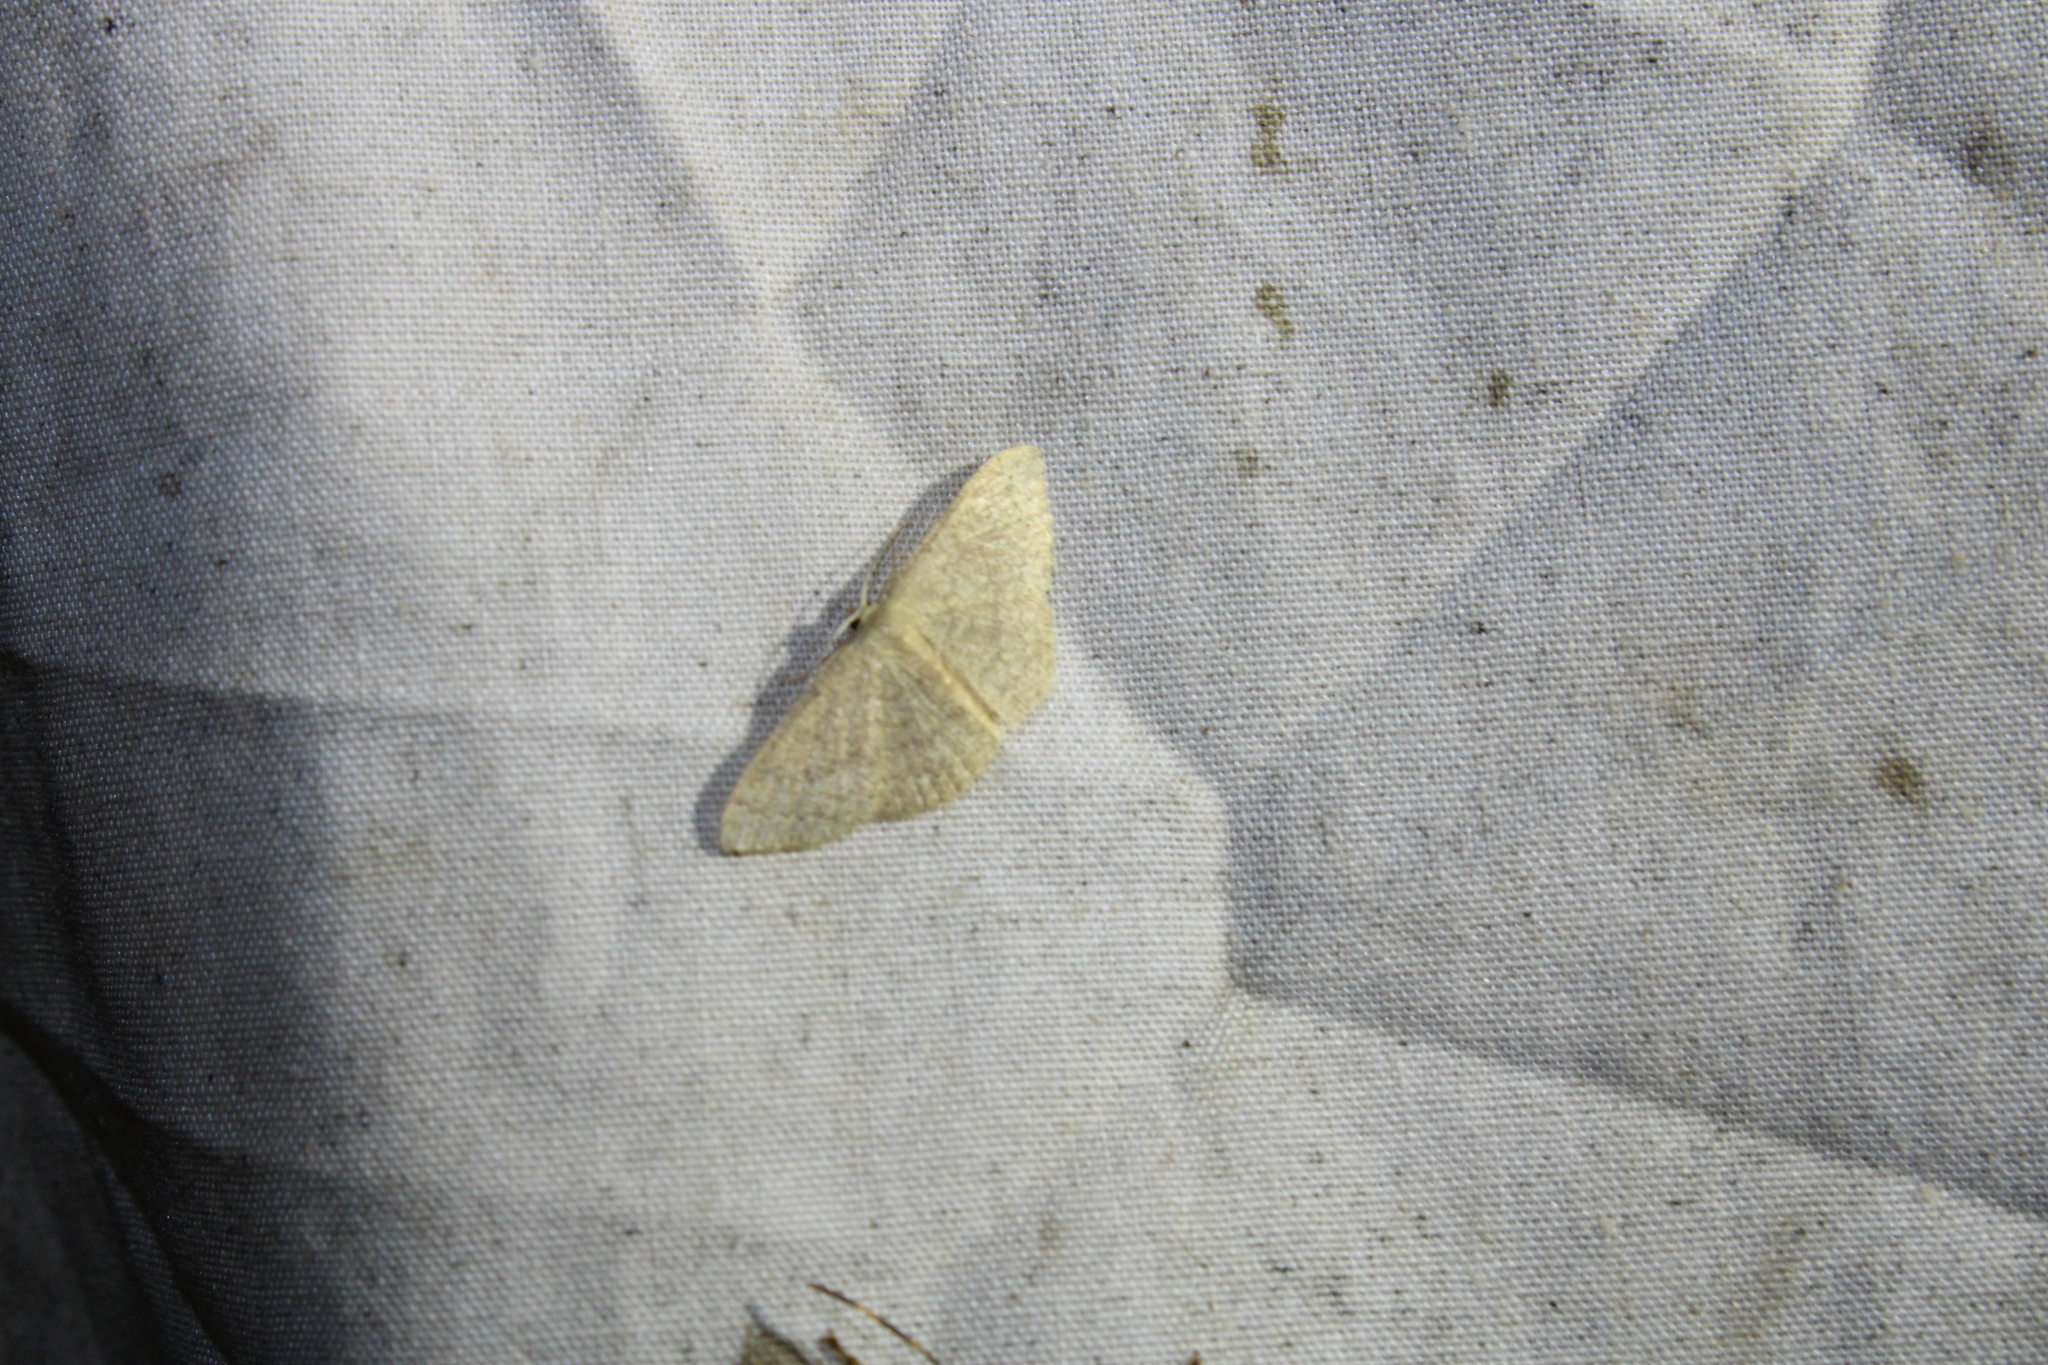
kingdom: Animalia
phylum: Arthropoda
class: Insecta
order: Lepidoptera
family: Geometridae
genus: Pleuroprucha
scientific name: Pleuroprucha insulsaria
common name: Common tan wave
